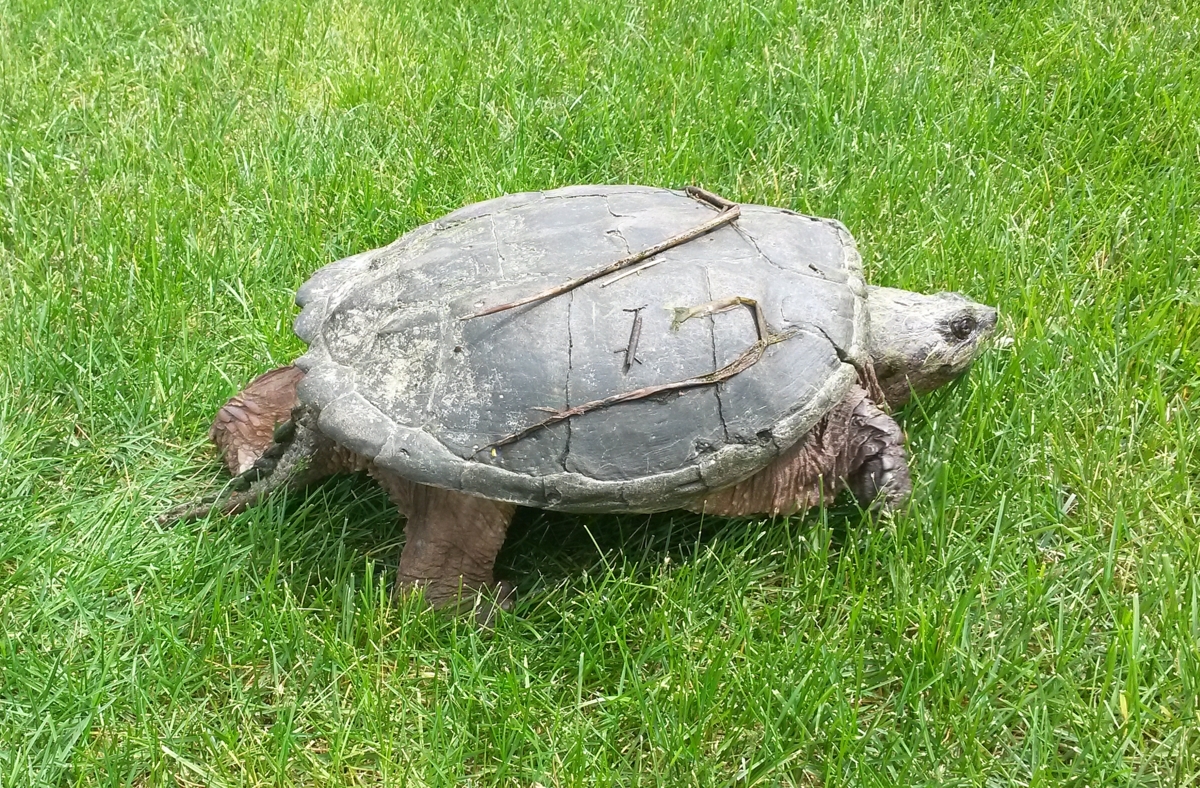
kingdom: Animalia
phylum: Chordata
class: Testudines
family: Chelydridae
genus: Chelydra
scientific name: Chelydra serpentina
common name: Common snapping turtle
